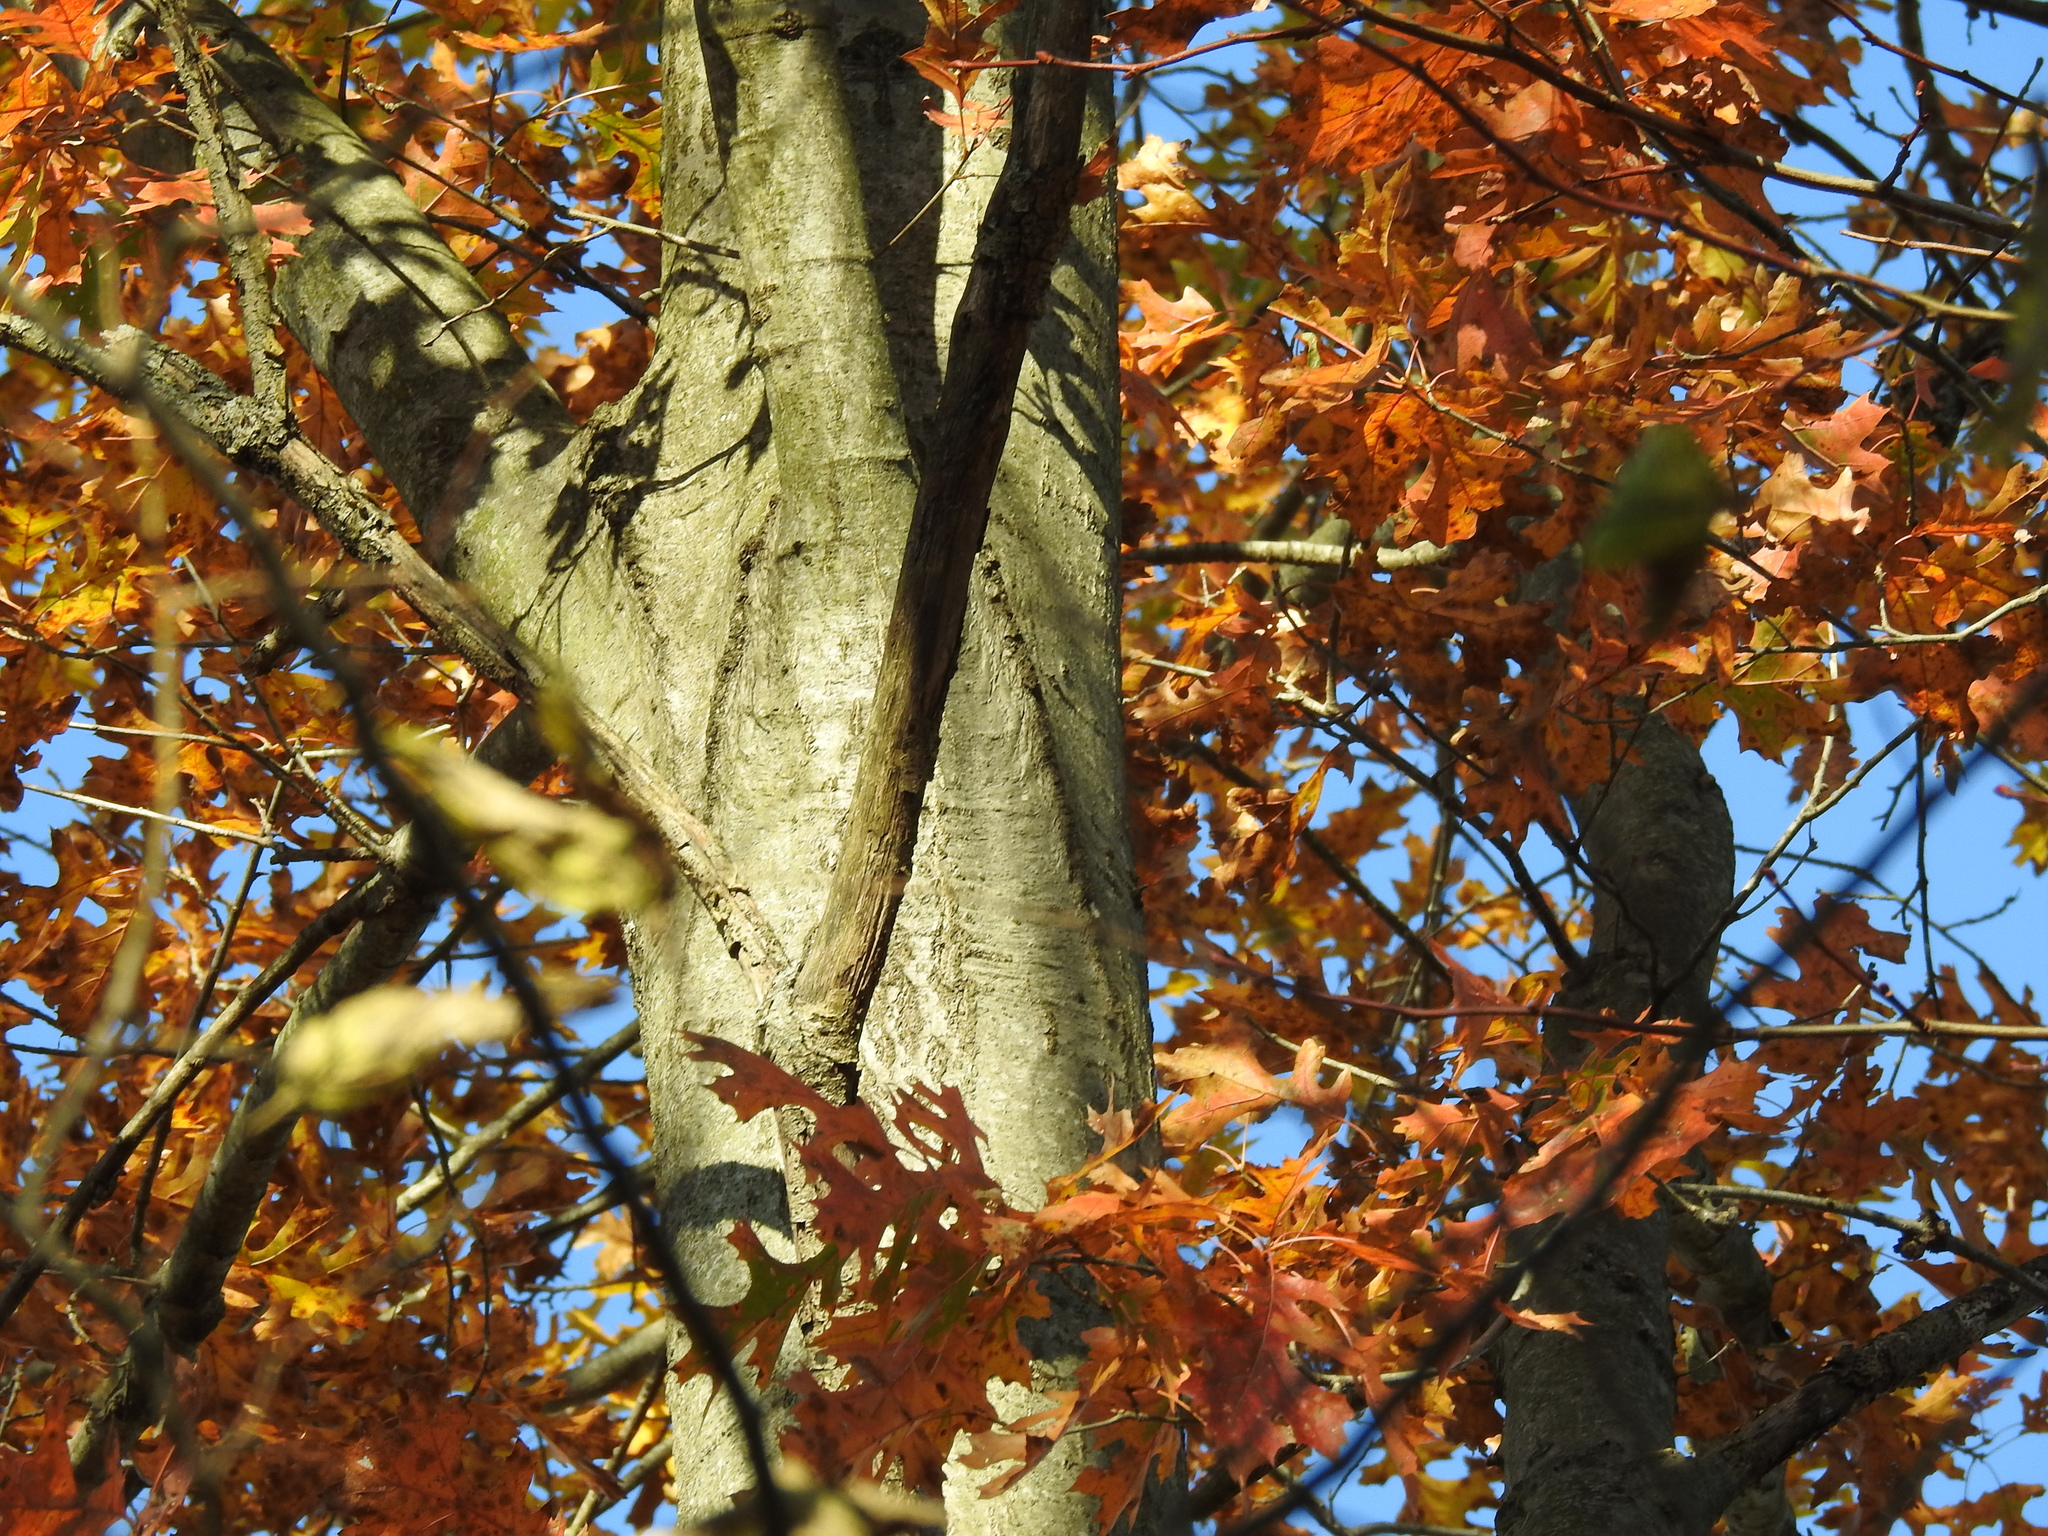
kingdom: Plantae
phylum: Tracheophyta
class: Magnoliopsida
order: Fagales
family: Fagaceae
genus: Quercus
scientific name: Quercus rubra
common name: Red oak
